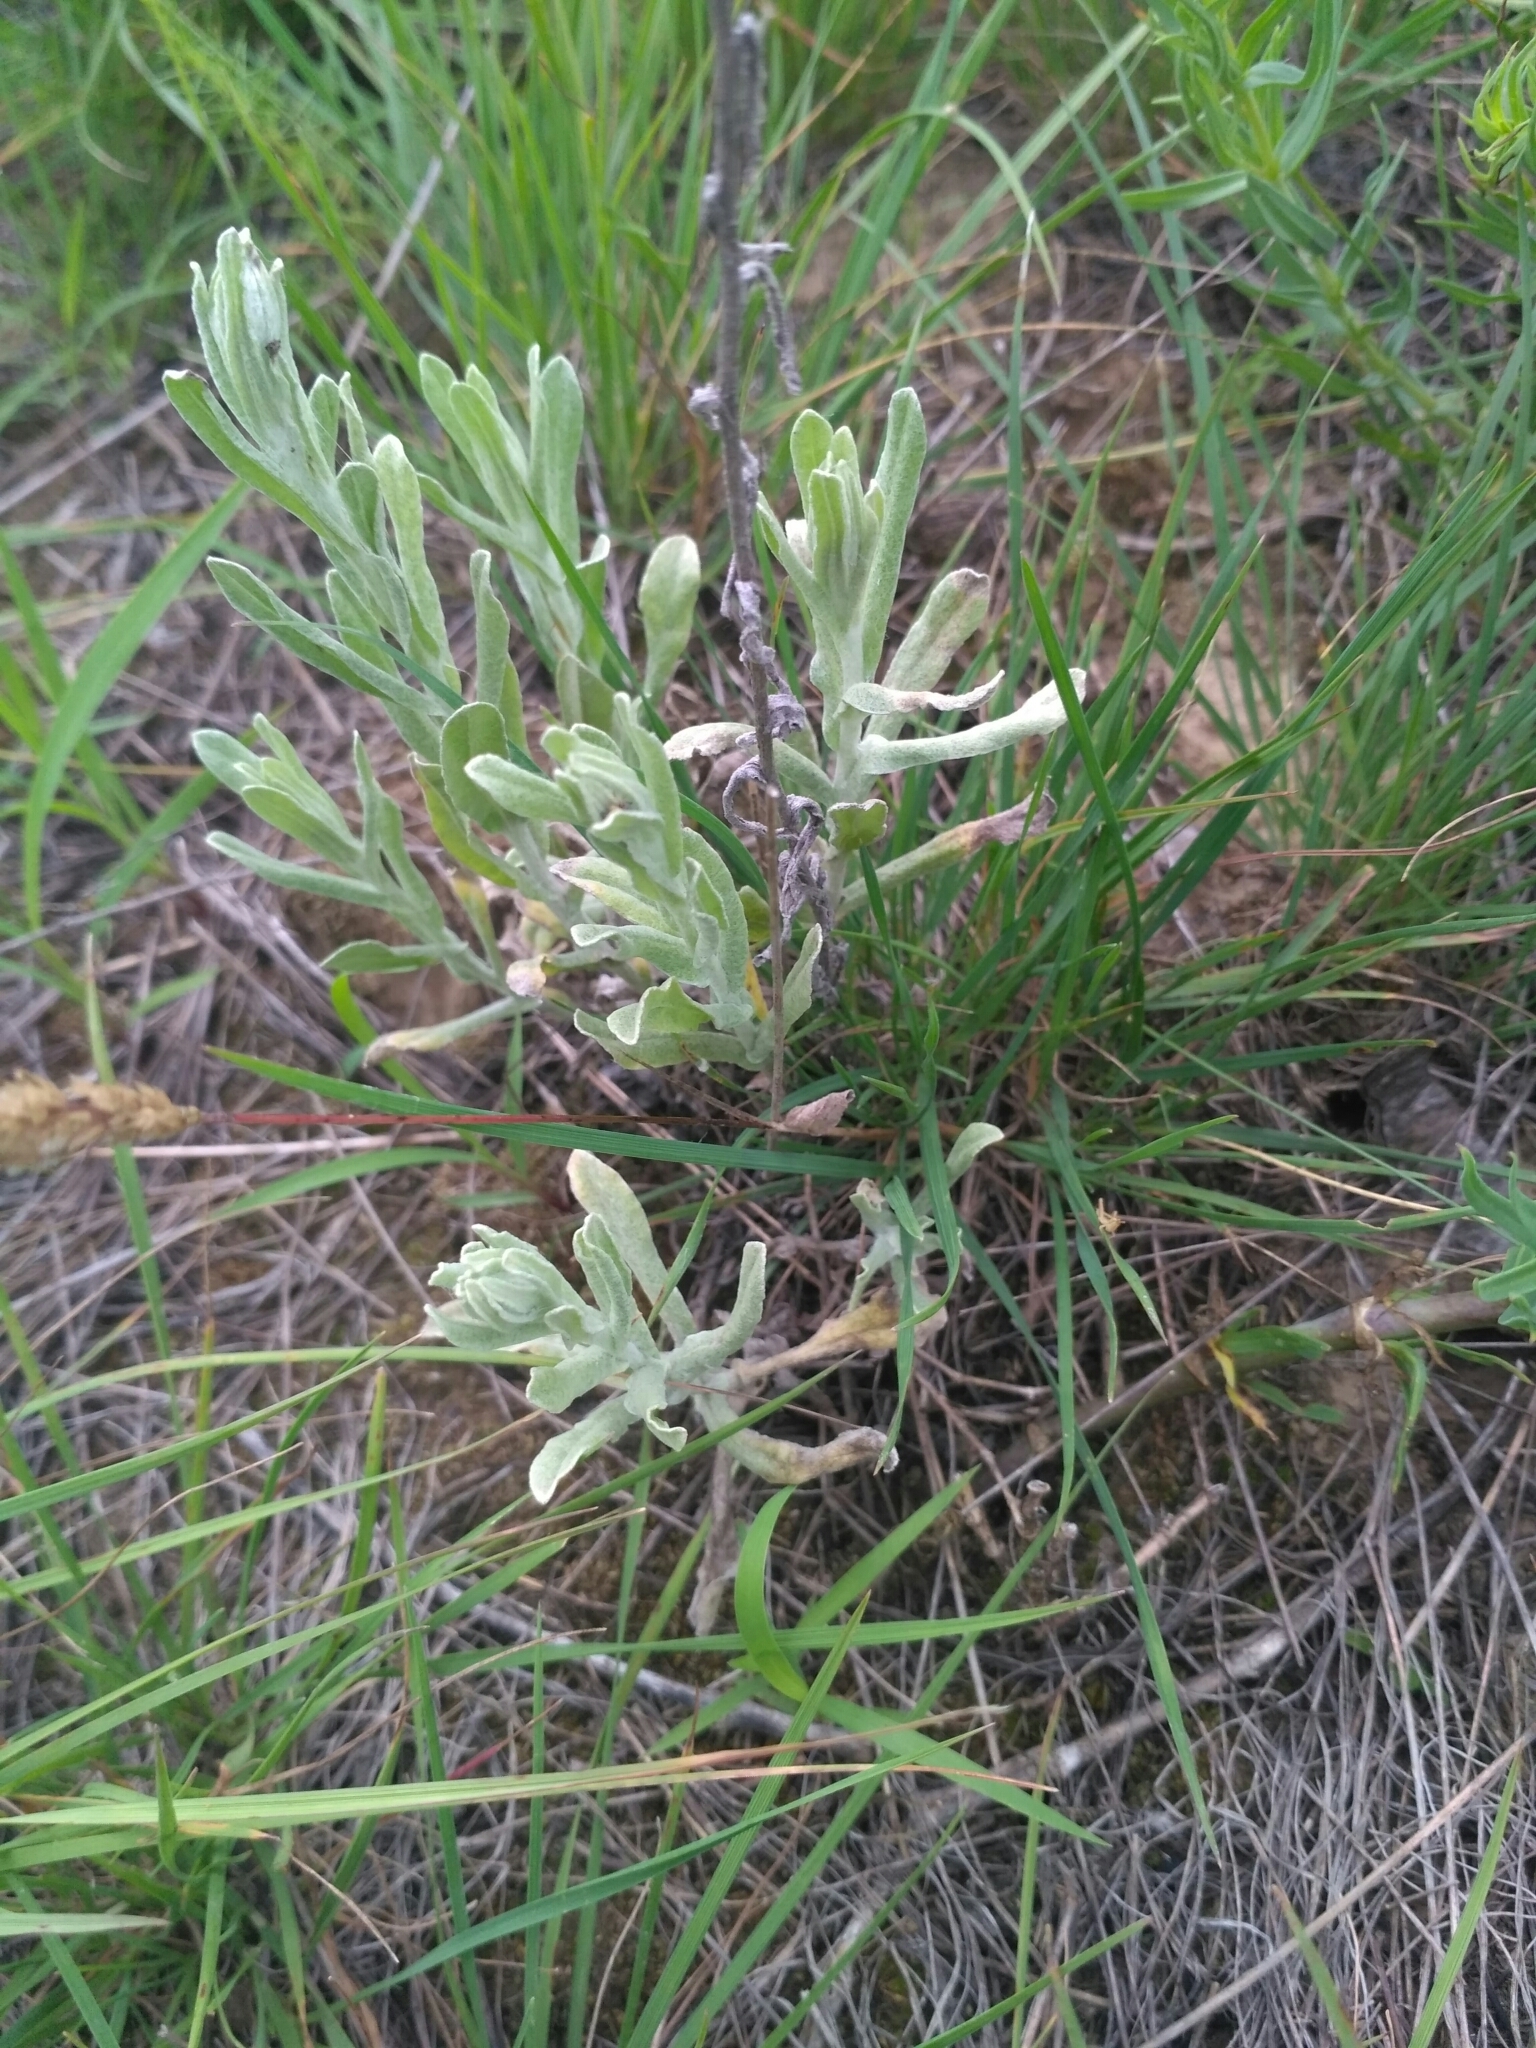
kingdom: Plantae
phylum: Tracheophyta
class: Magnoliopsida
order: Asterales
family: Asteraceae
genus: Helichrysum
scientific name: Helichrysum arenarium
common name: Strawflower
